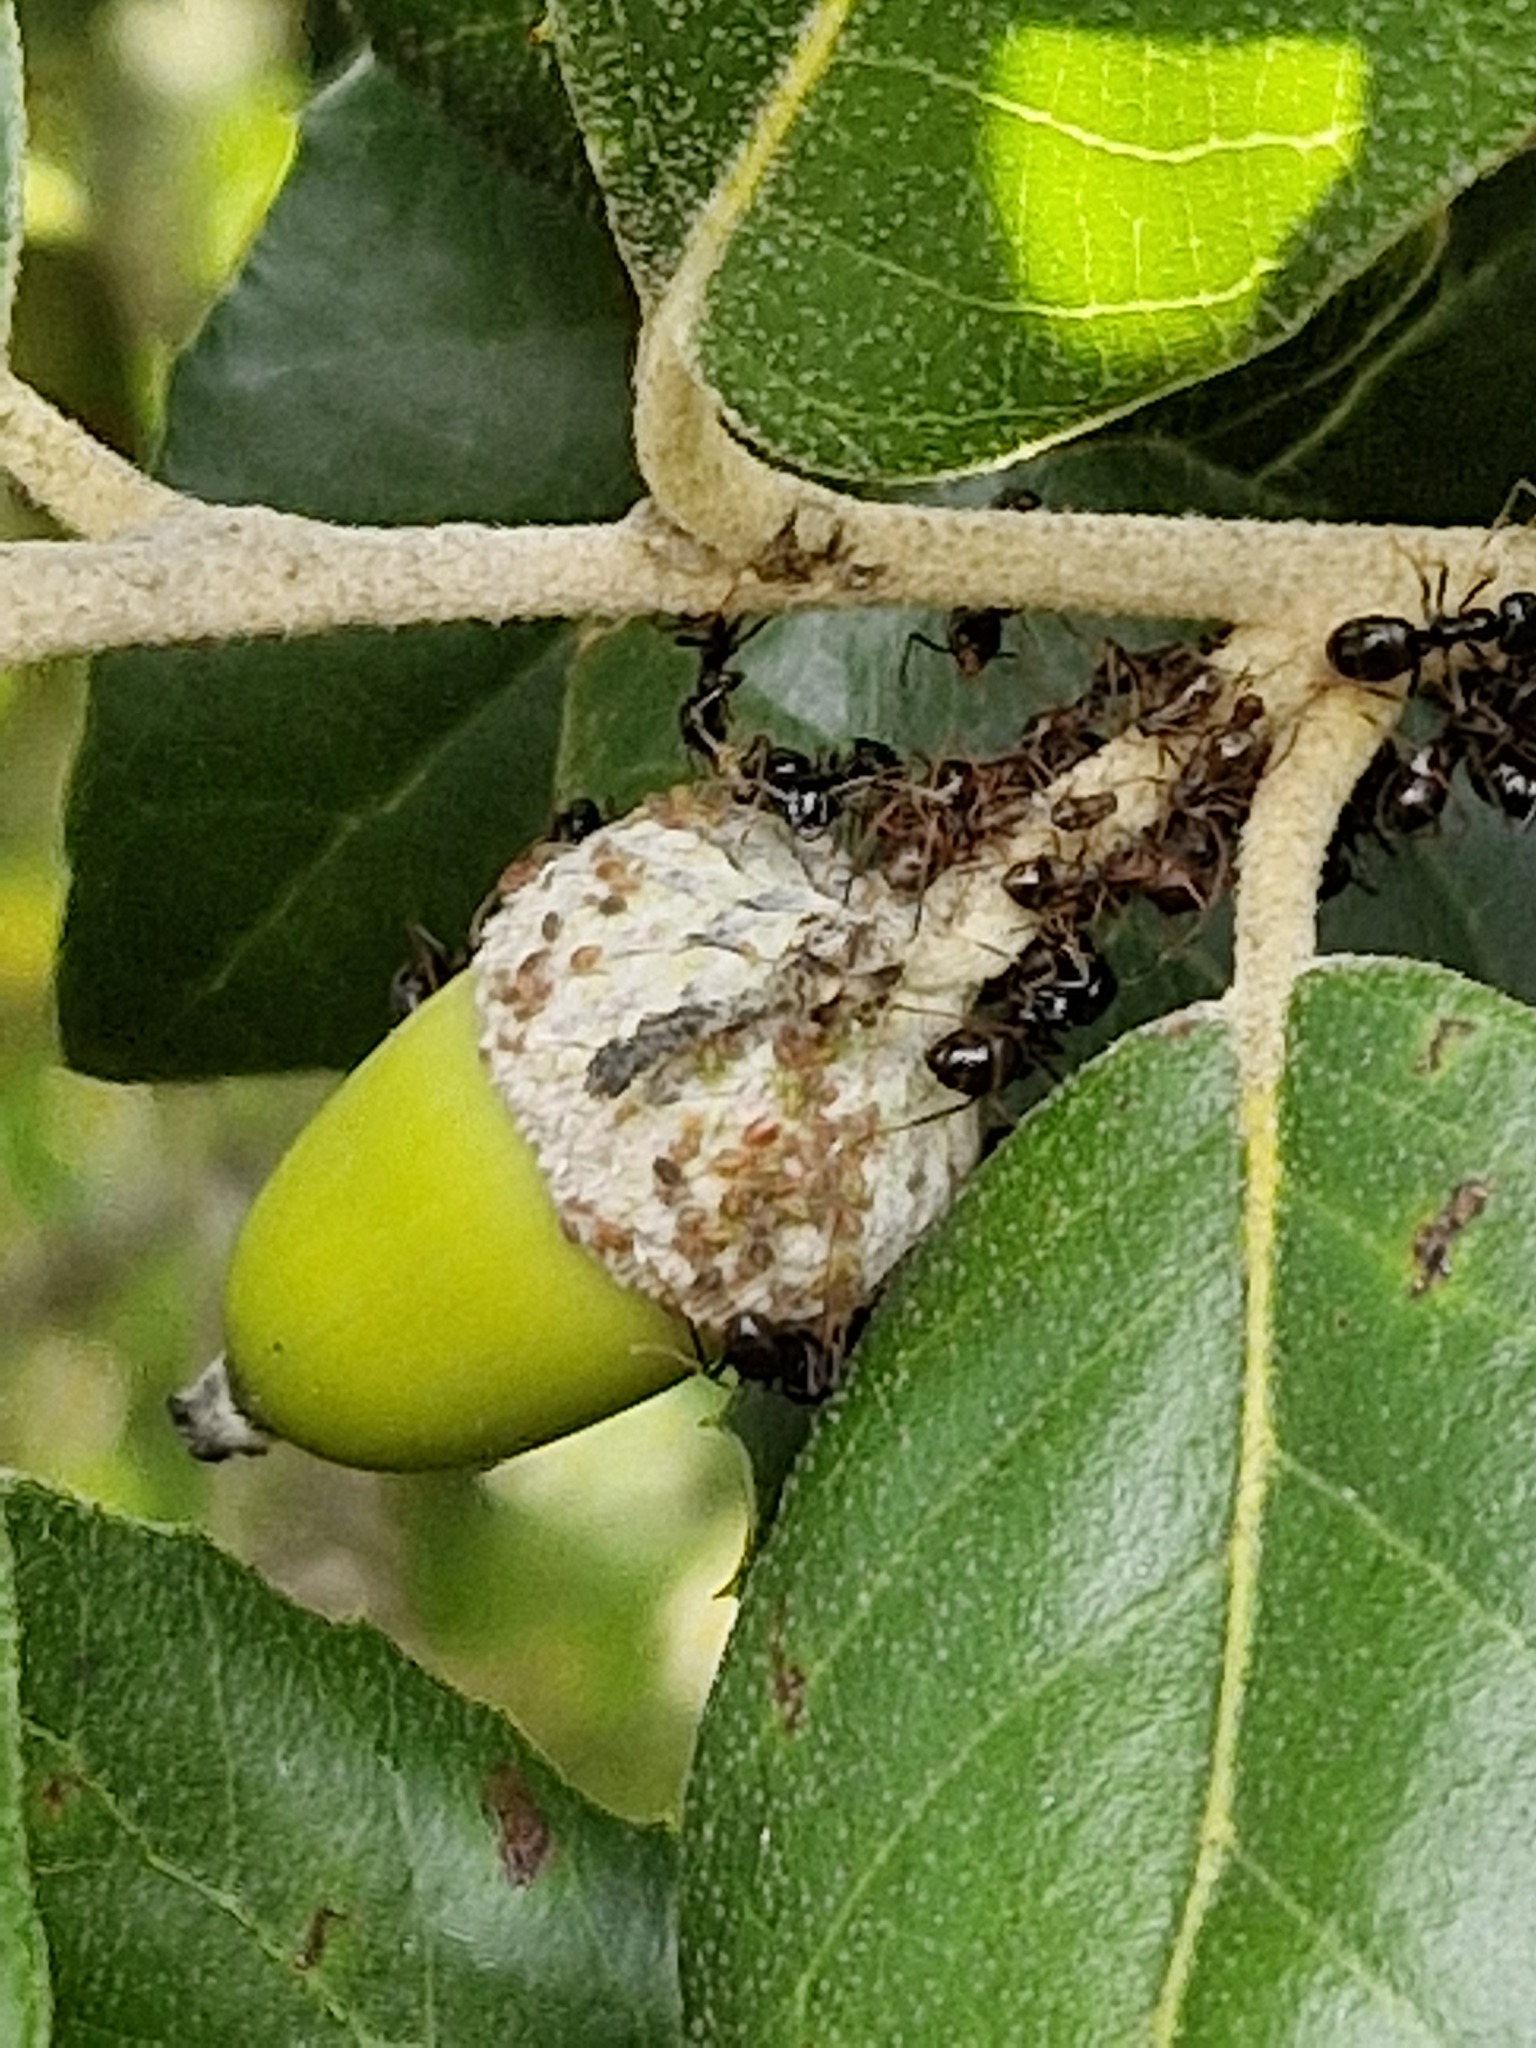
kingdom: Animalia
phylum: Arthropoda
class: Insecta
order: Hymenoptera
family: Formicidae
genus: Lasius
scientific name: Lasius fuliginosus
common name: Jet ant
